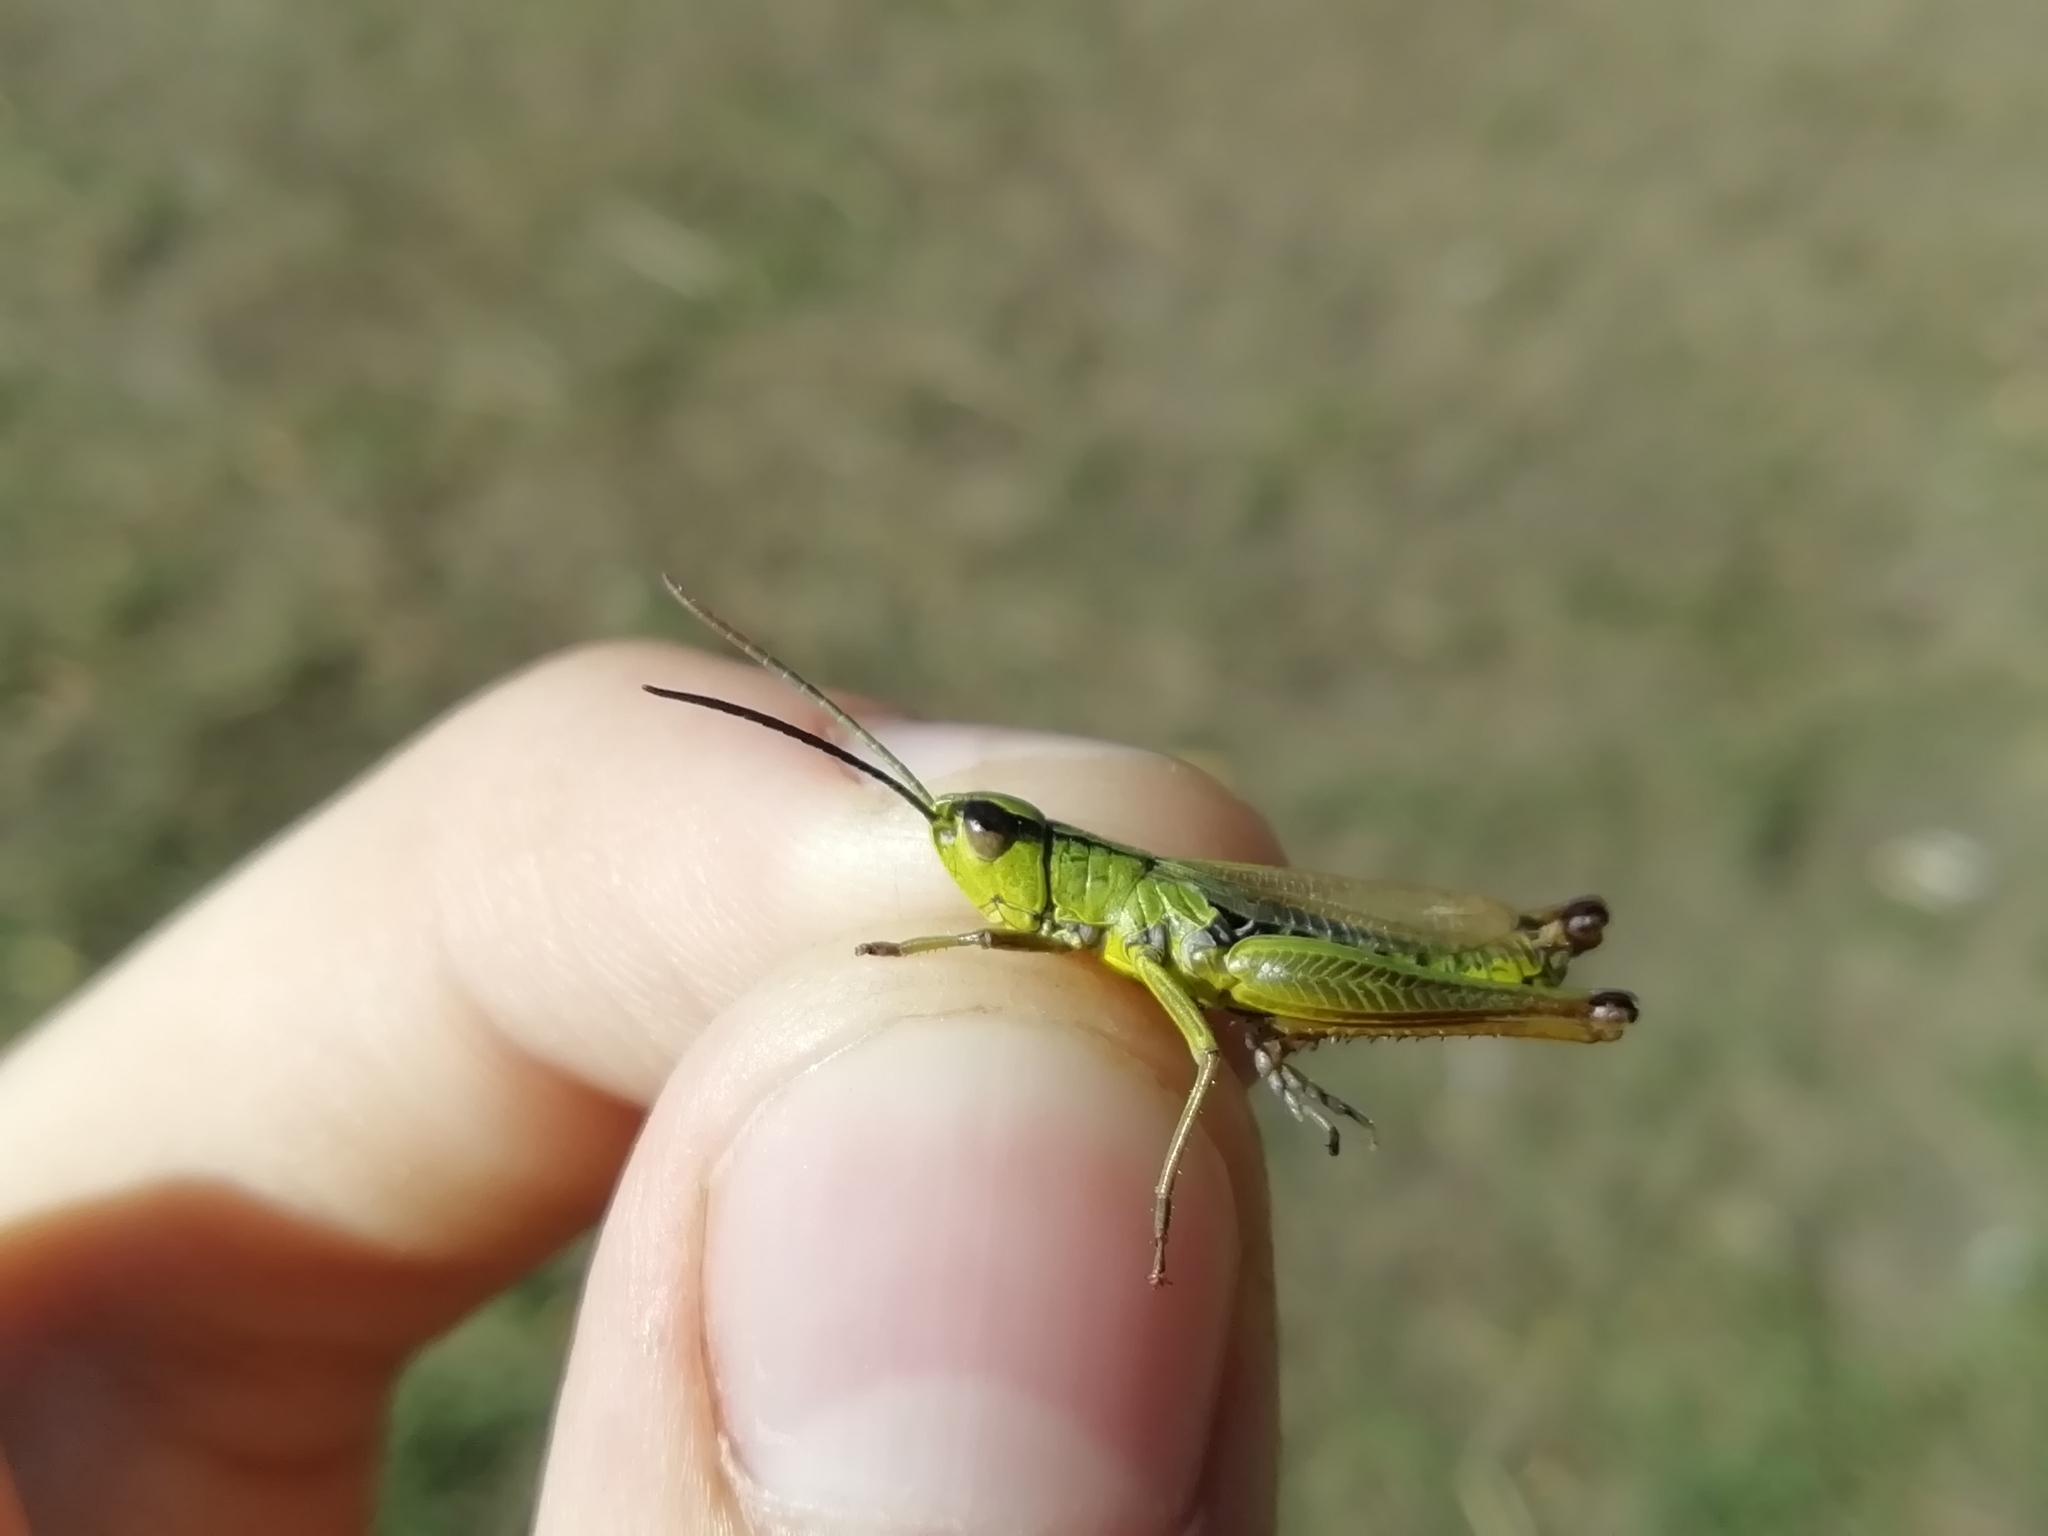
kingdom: Animalia
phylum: Arthropoda
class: Insecta
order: Orthoptera
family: Acrididae
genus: Pseudochorthippus
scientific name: Pseudochorthippus parallelus
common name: Meadow grasshopper
